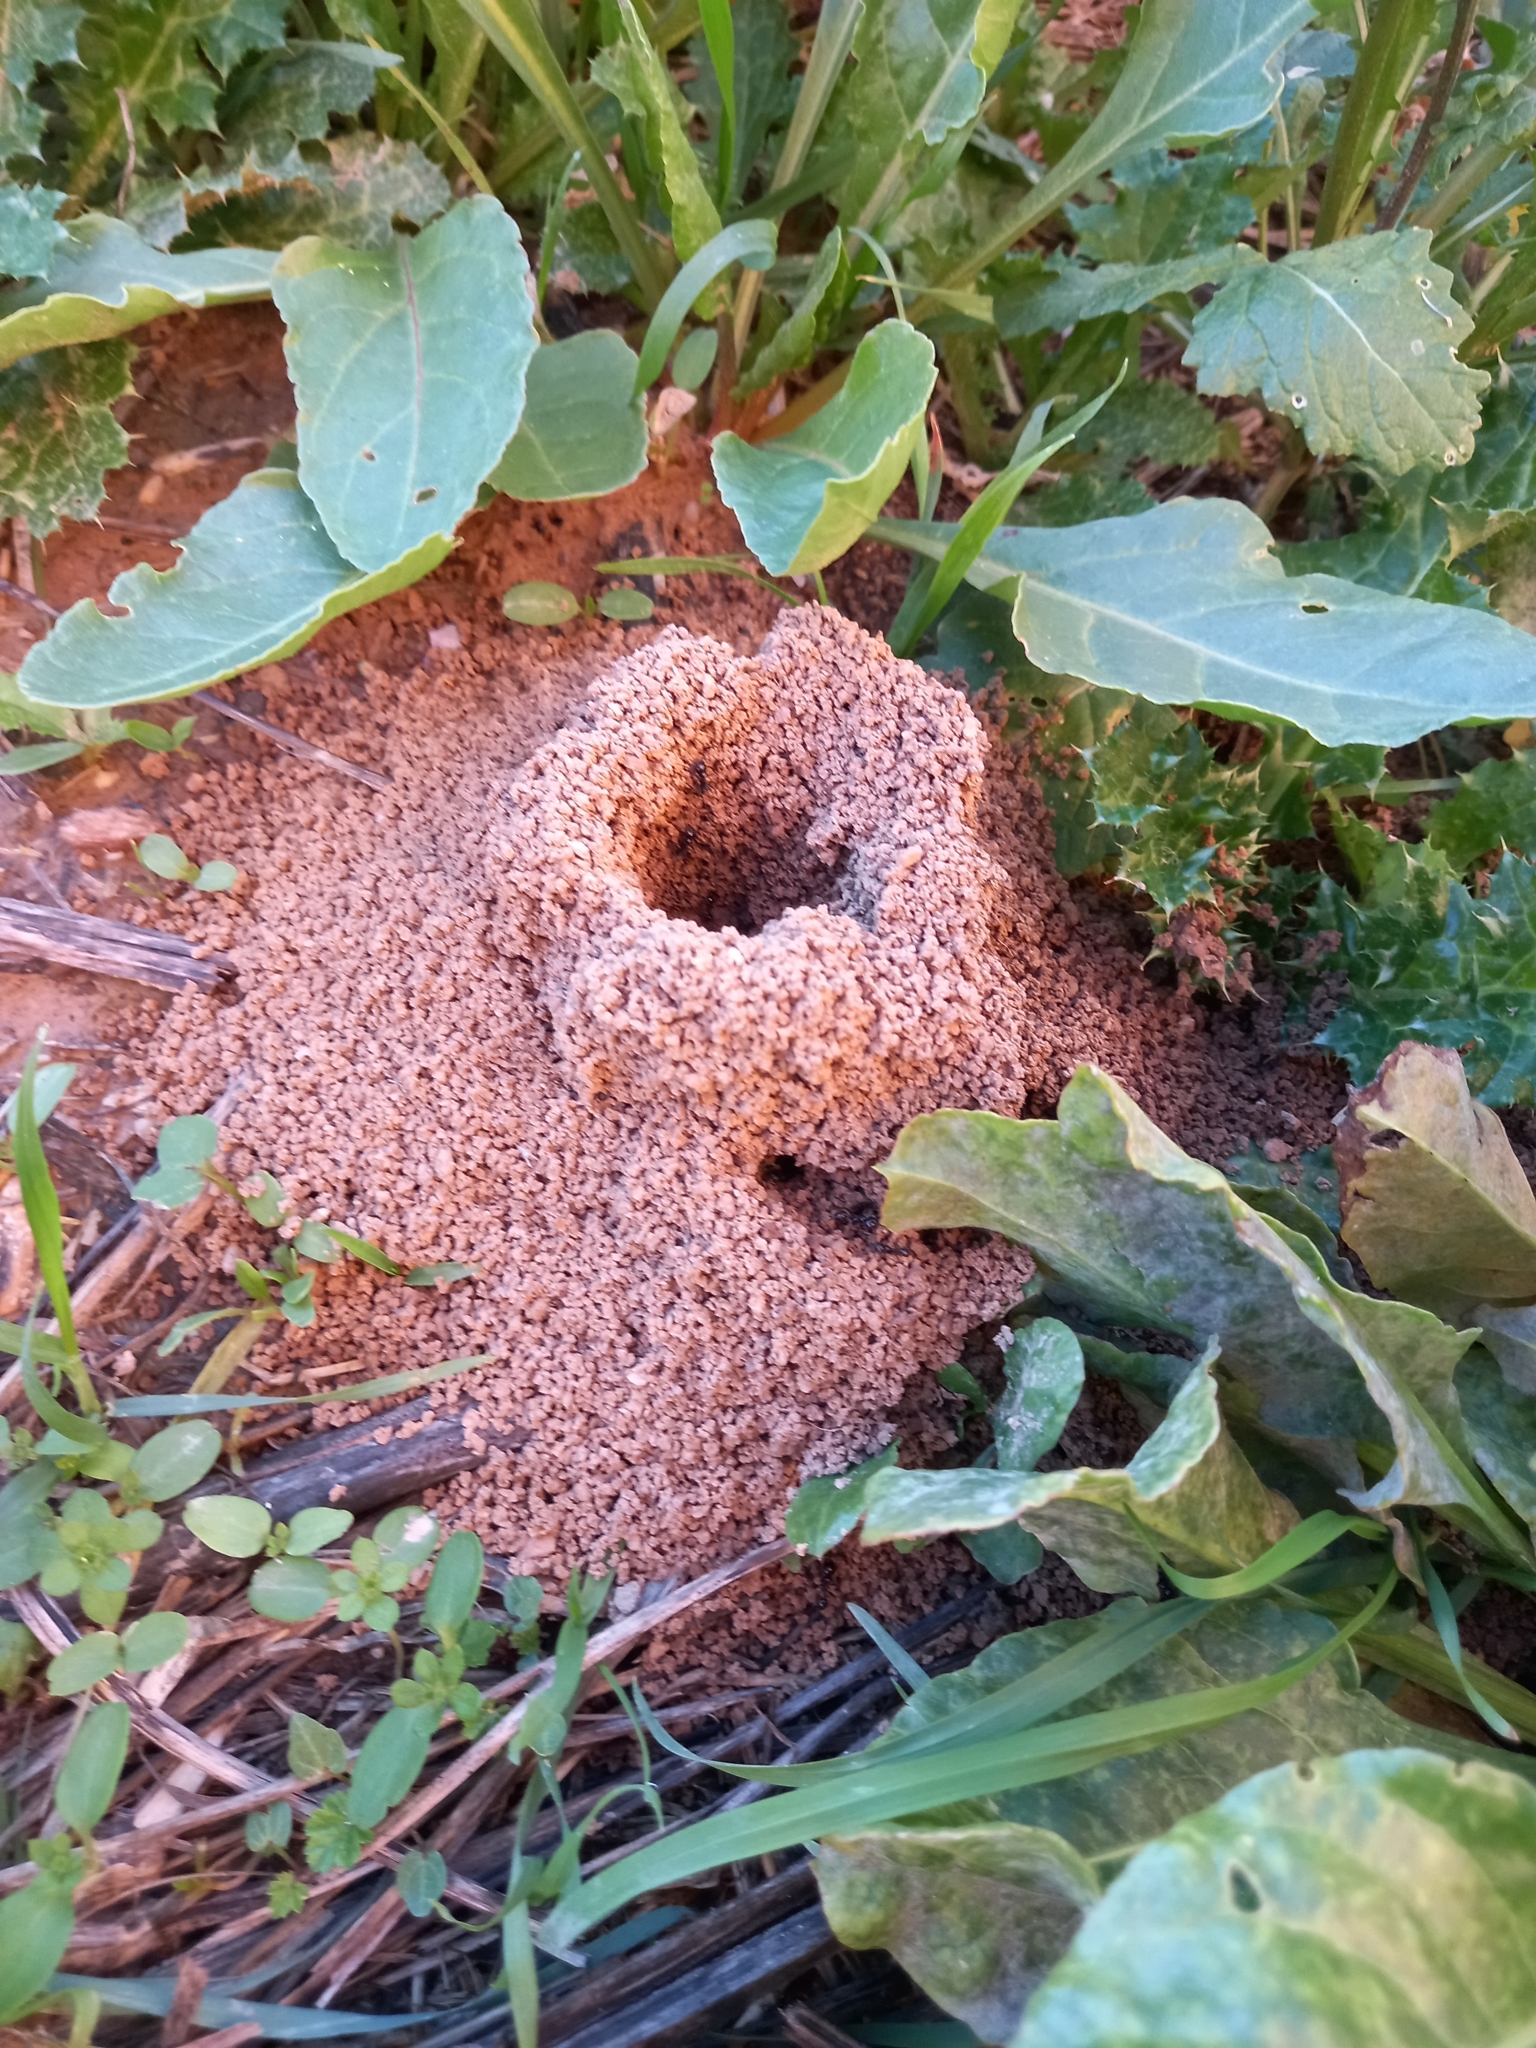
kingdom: Animalia
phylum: Arthropoda
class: Insecta
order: Hymenoptera
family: Formicidae
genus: Messor
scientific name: Messor barbarus
